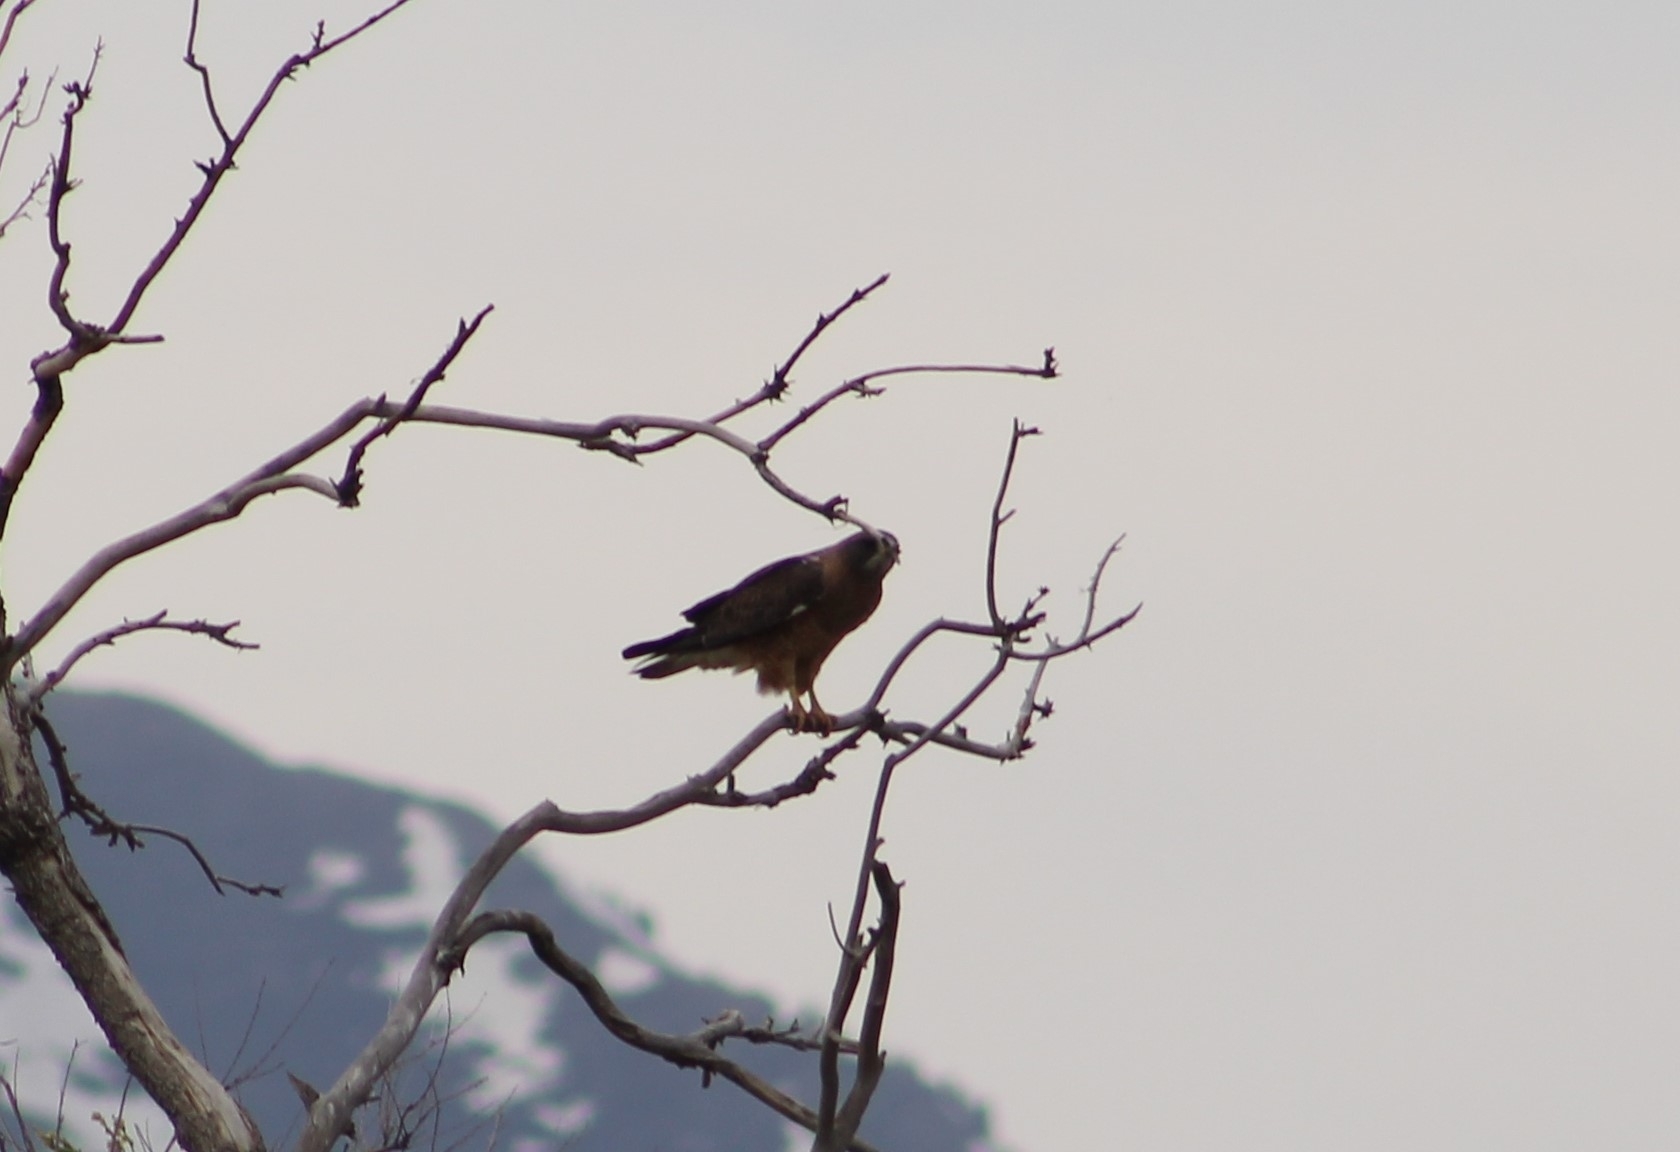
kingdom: Animalia
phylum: Chordata
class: Aves
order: Accipitriformes
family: Accipitridae
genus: Buteo
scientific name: Buteo swainsoni
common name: Swainson's hawk
